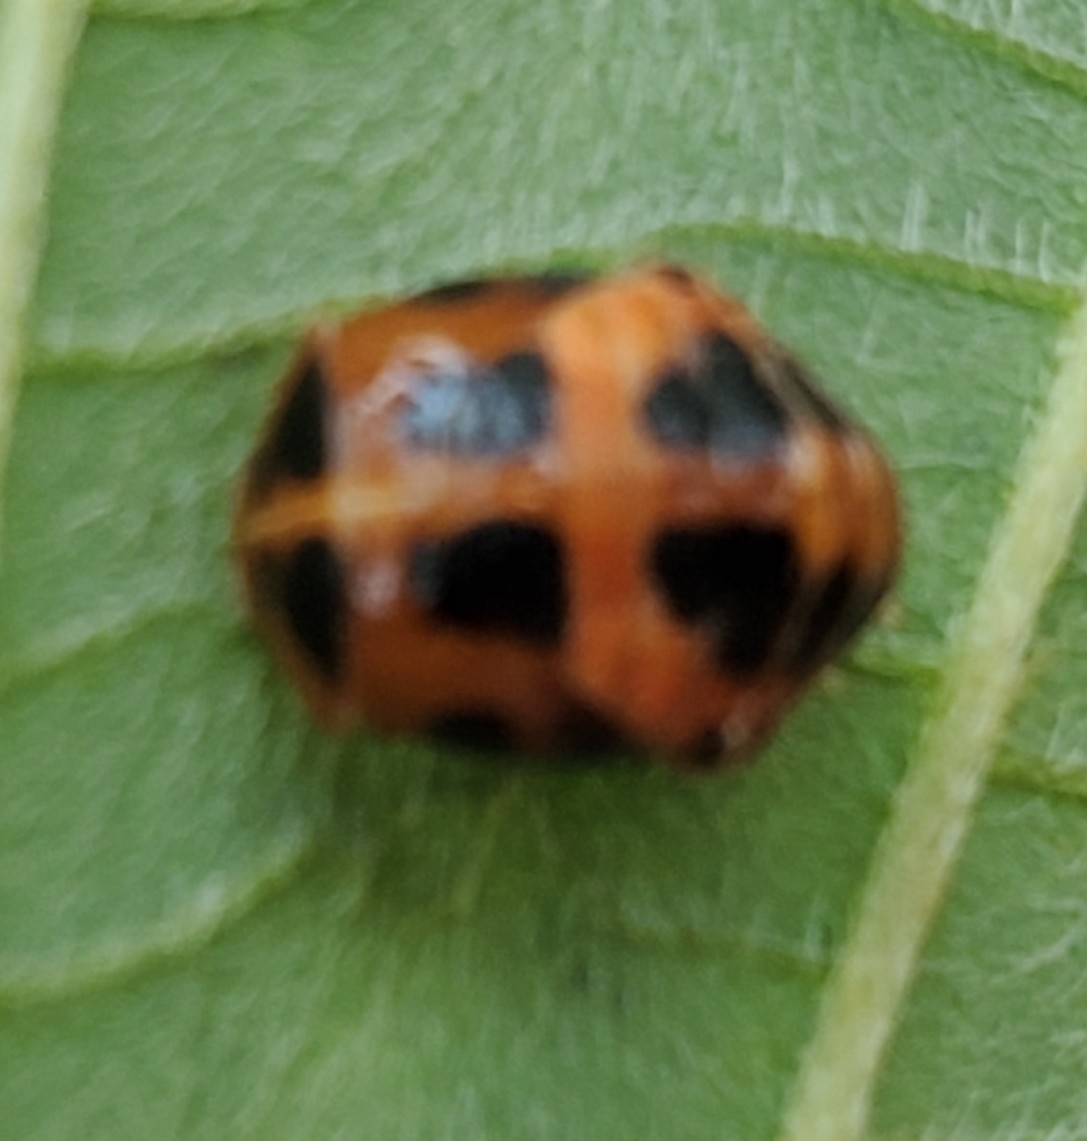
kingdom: Animalia
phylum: Arthropoda
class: Insecta
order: Coleoptera
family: Coccinellidae
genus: Harmonia
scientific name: Harmonia axyridis
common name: Harlequin ladybird
